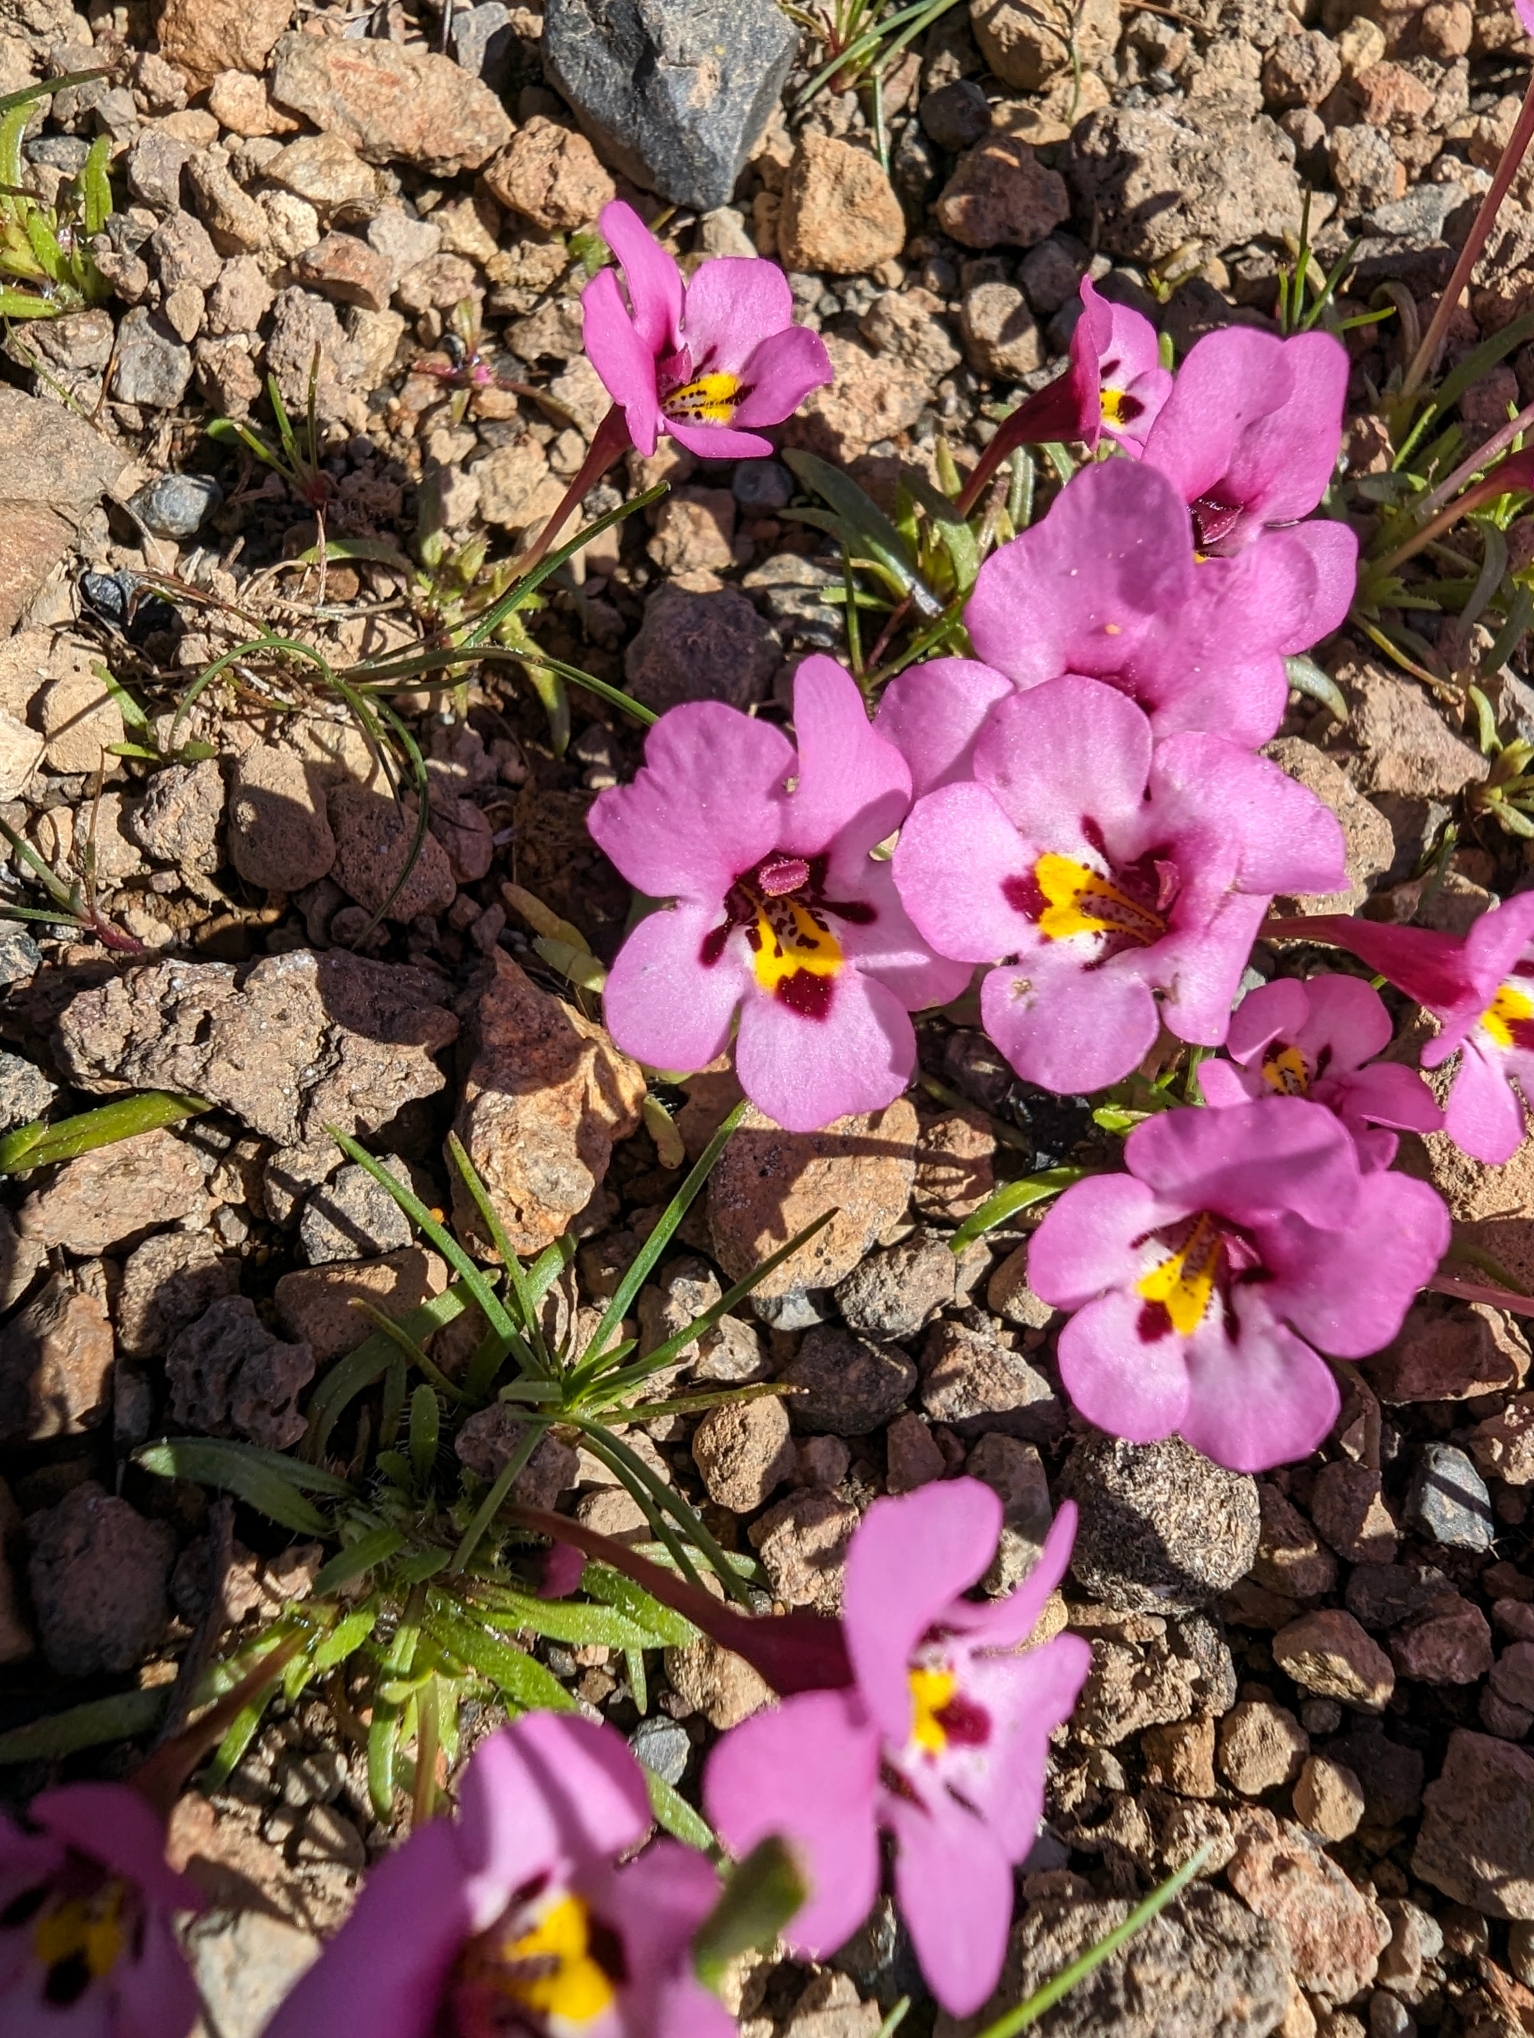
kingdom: Plantae
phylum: Tracheophyta
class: Magnoliopsida
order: Lamiales
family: Phrymaceae
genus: Diplacus
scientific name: Diplacus angustatus
